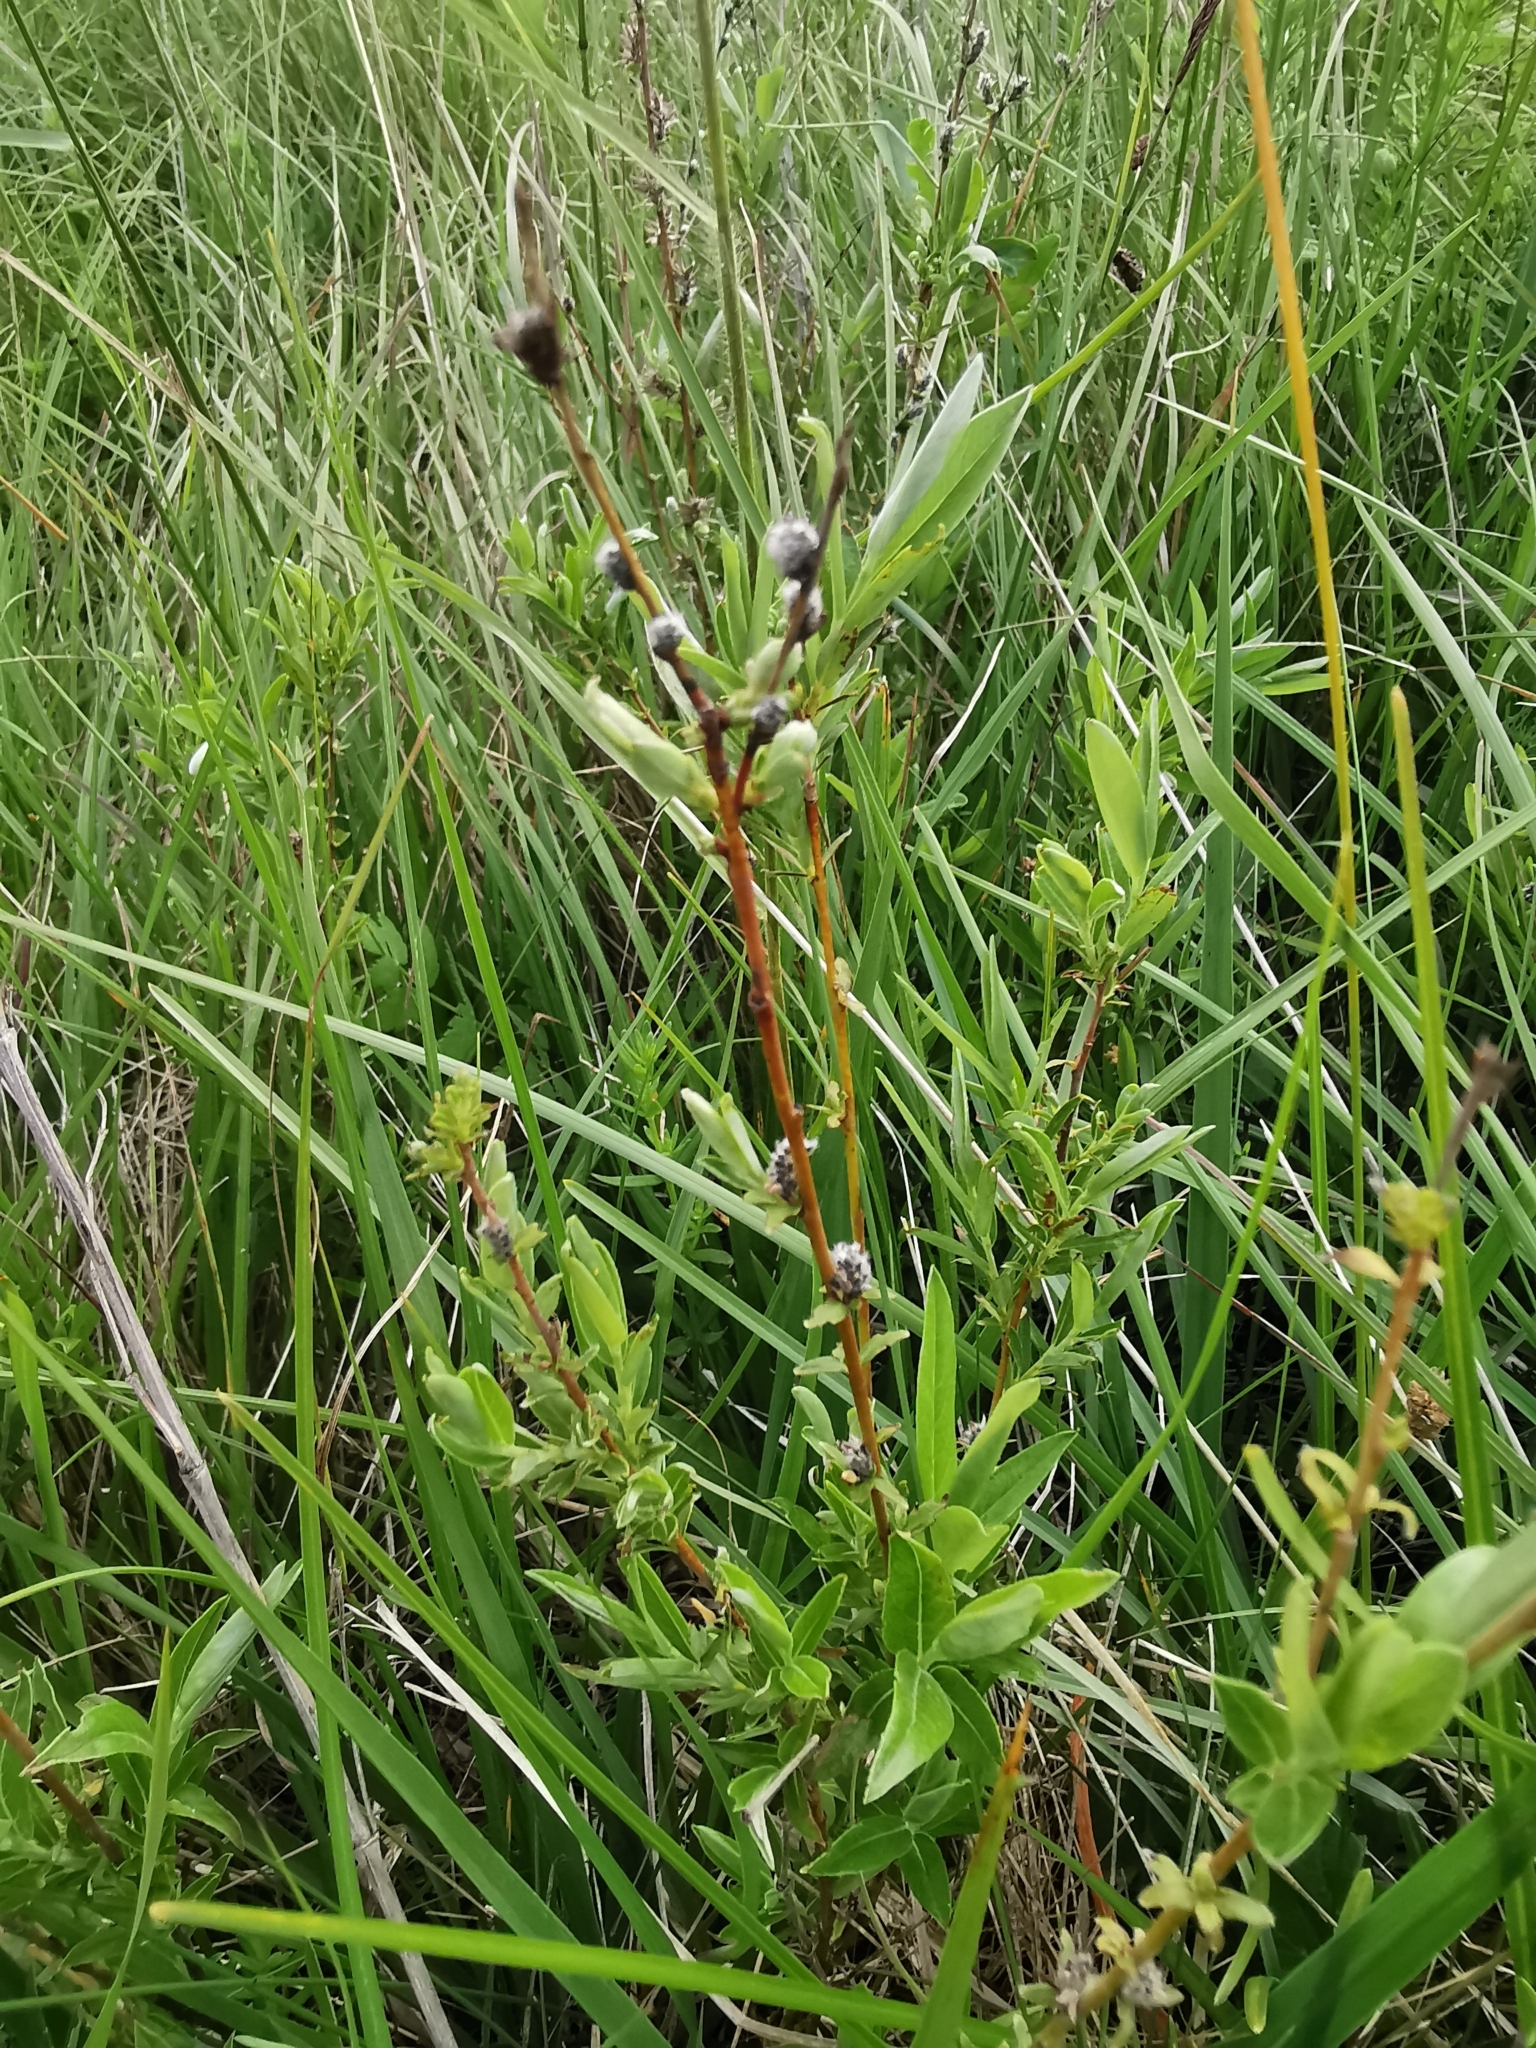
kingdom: Plantae
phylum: Tracheophyta
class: Magnoliopsida
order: Malpighiales
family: Salicaceae
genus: Salix
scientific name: Salix rosmarinifolia
